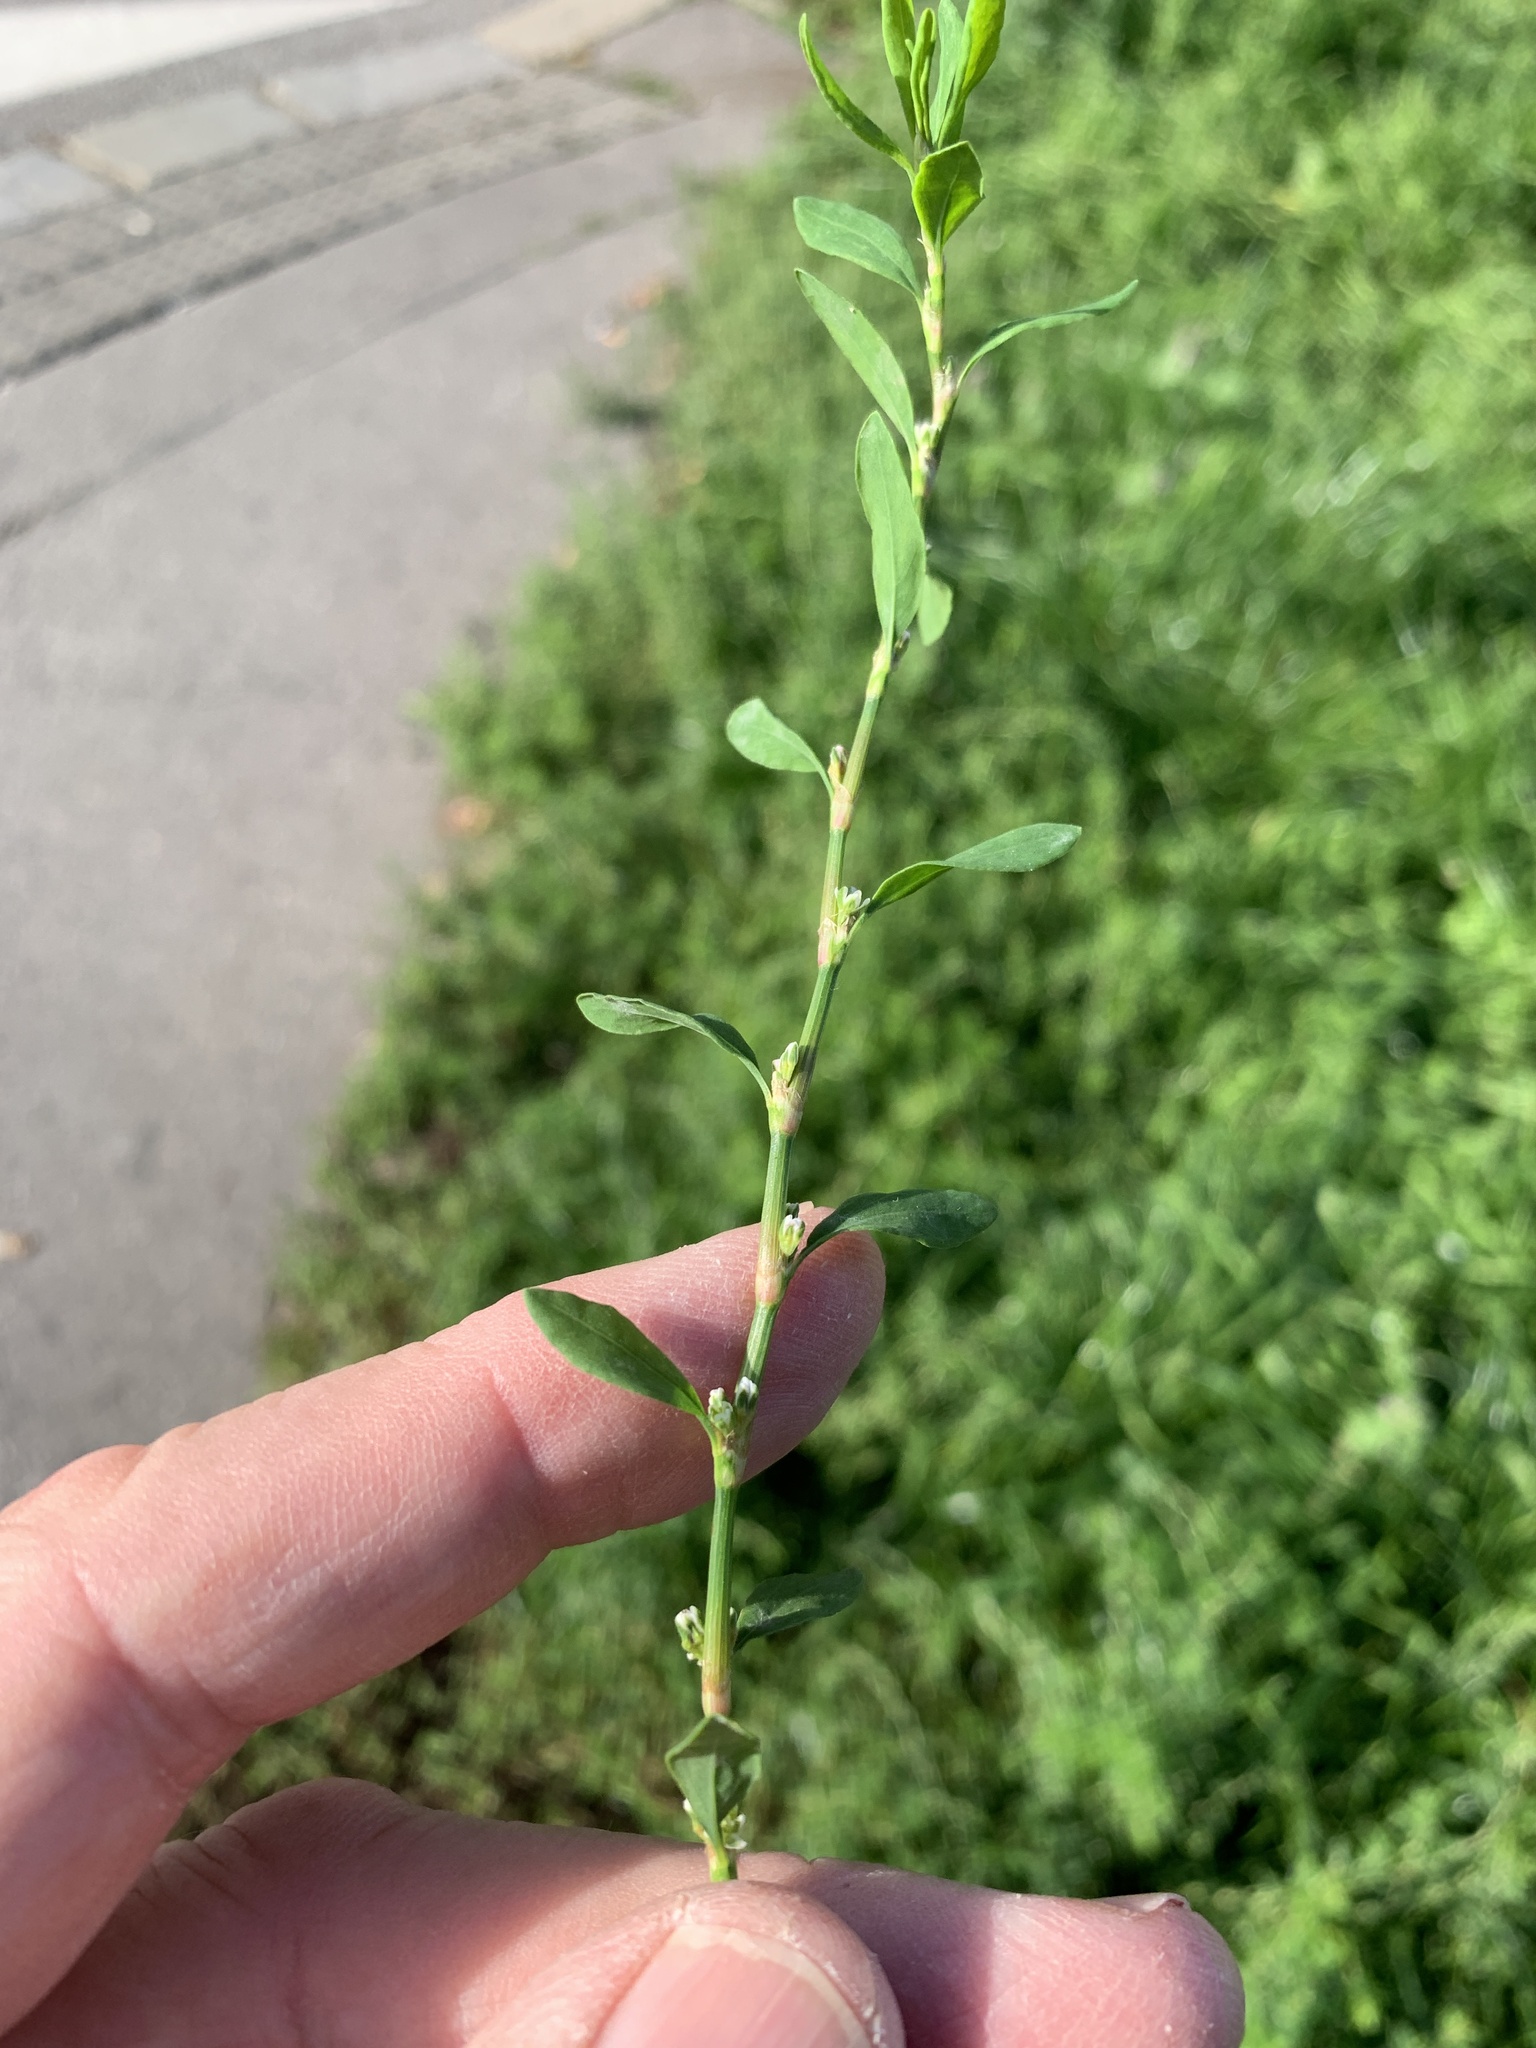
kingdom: Plantae
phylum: Tracheophyta
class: Magnoliopsida
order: Caryophyllales
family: Polygonaceae
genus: Polygonum
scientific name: Polygonum
